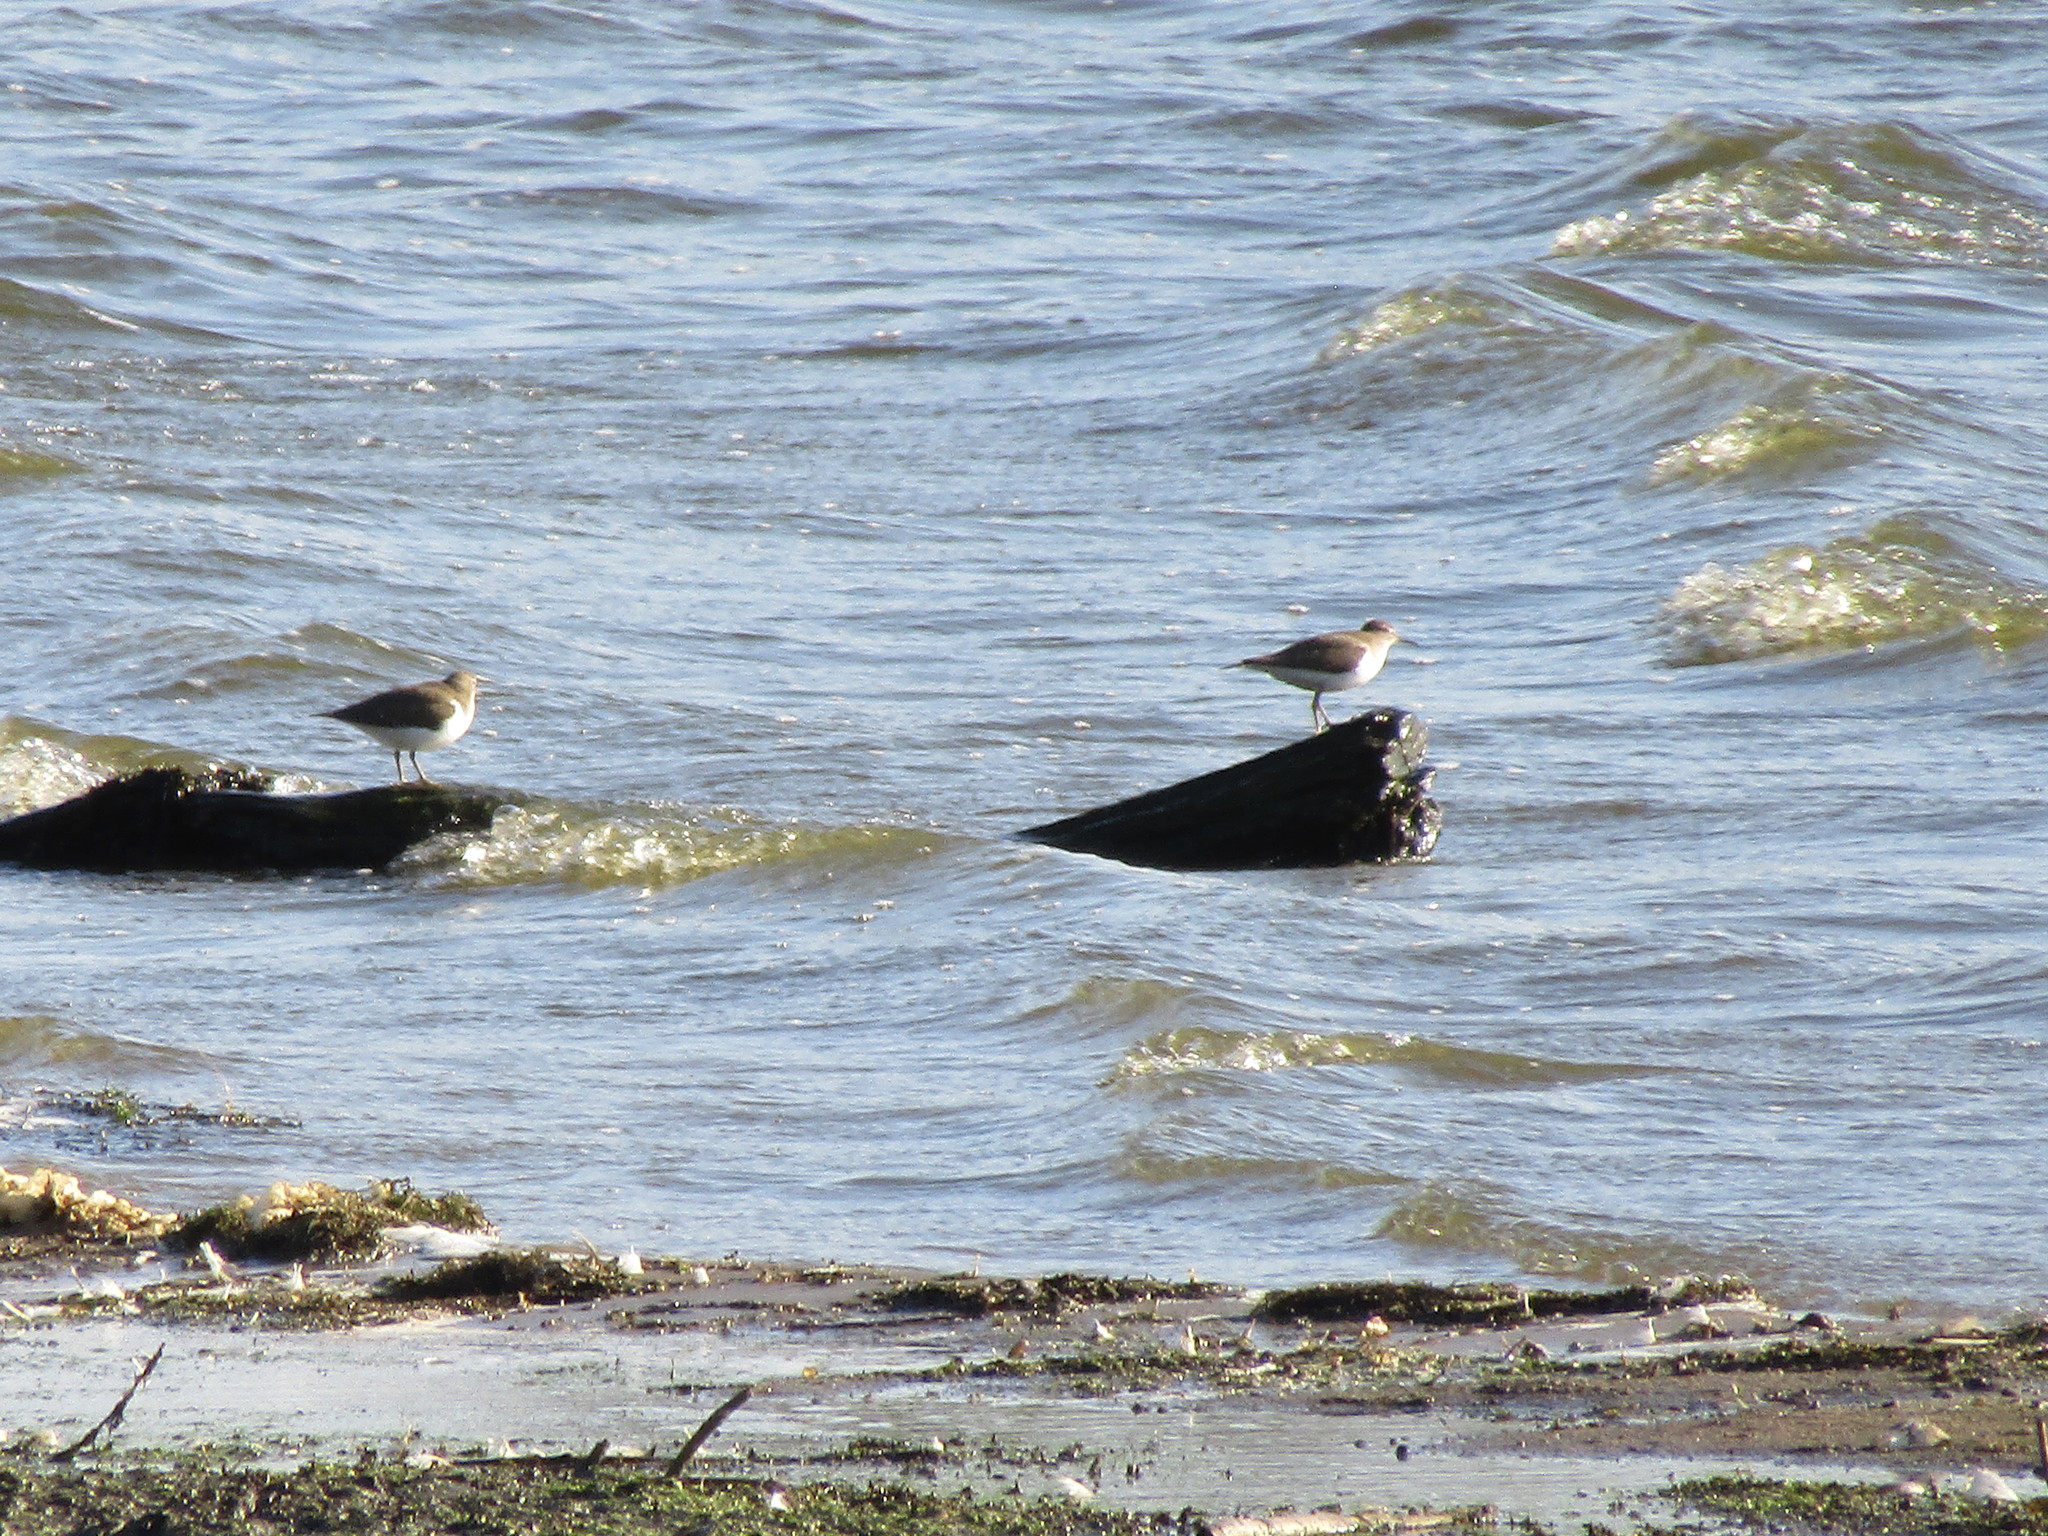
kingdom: Animalia
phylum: Chordata
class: Aves
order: Charadriiformes
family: Scolopacidae
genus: Actitis
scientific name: Actitis hypoleucos
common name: Common sandpiper
